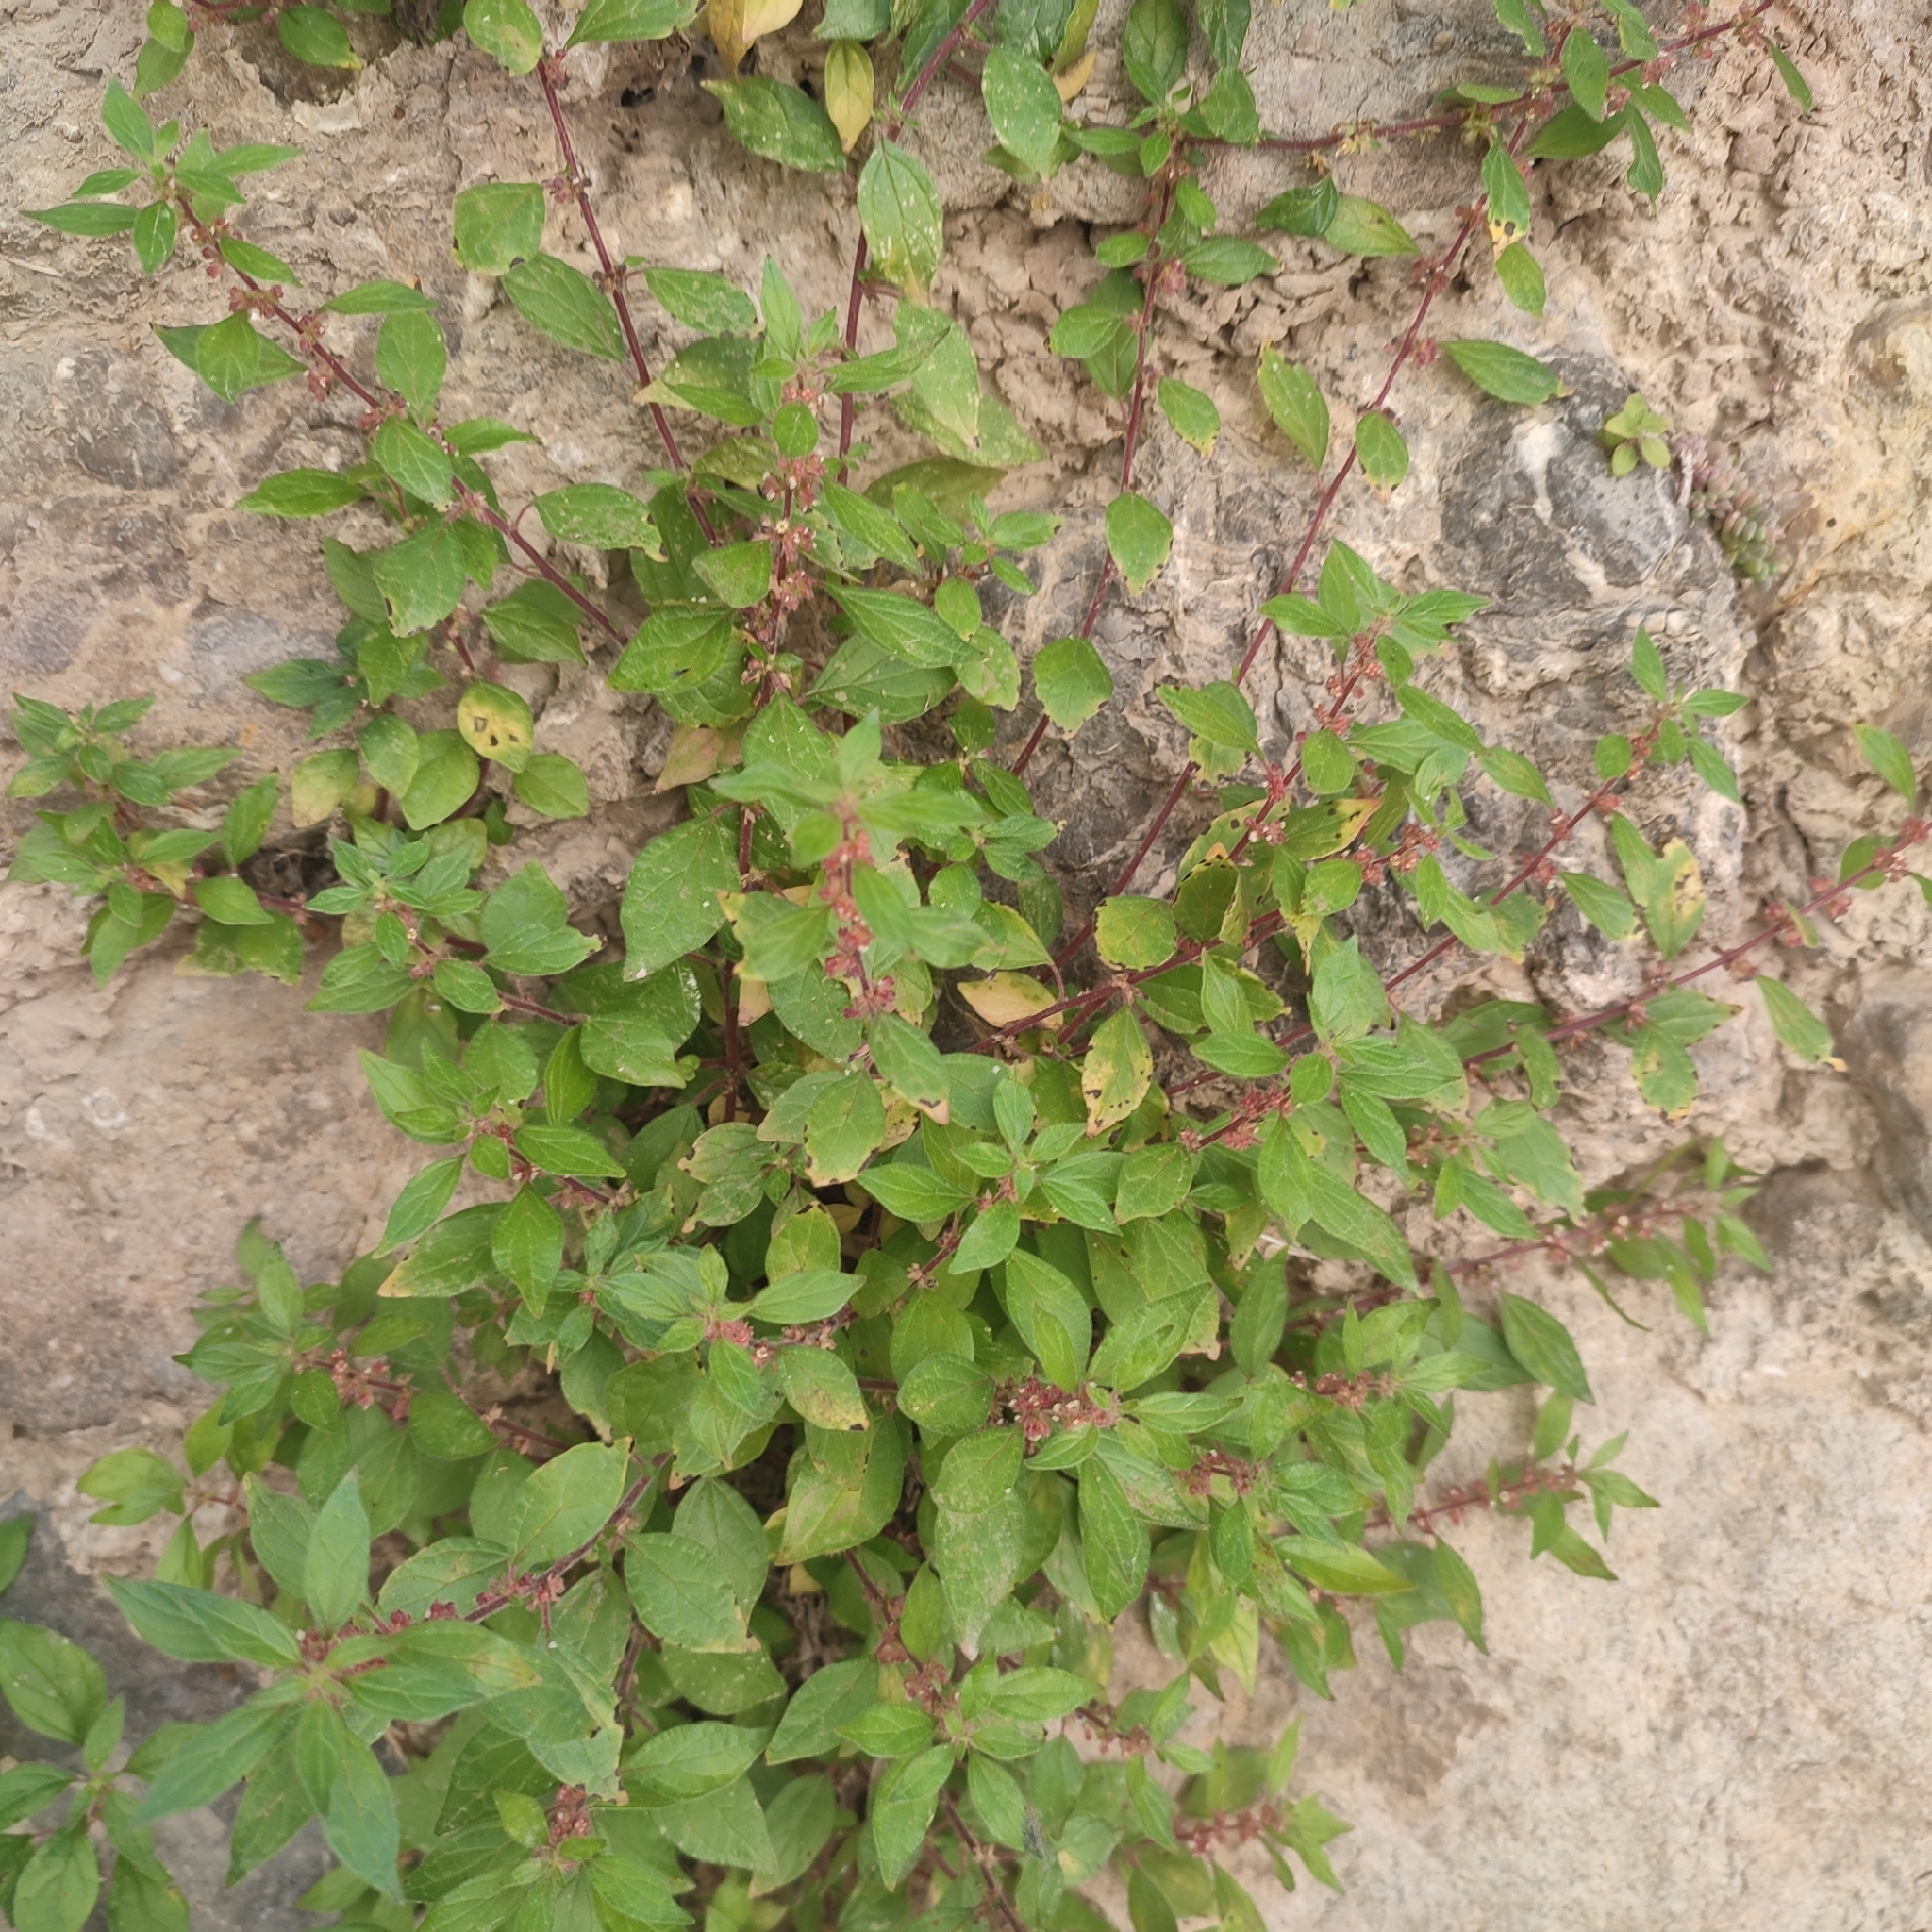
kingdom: Plantae
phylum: Tracheophyta
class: Magnoliopsida
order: Rosales
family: Urticaceae
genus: Parietaria
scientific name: Parietaria judaica
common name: Pellitory-of-the-wall
